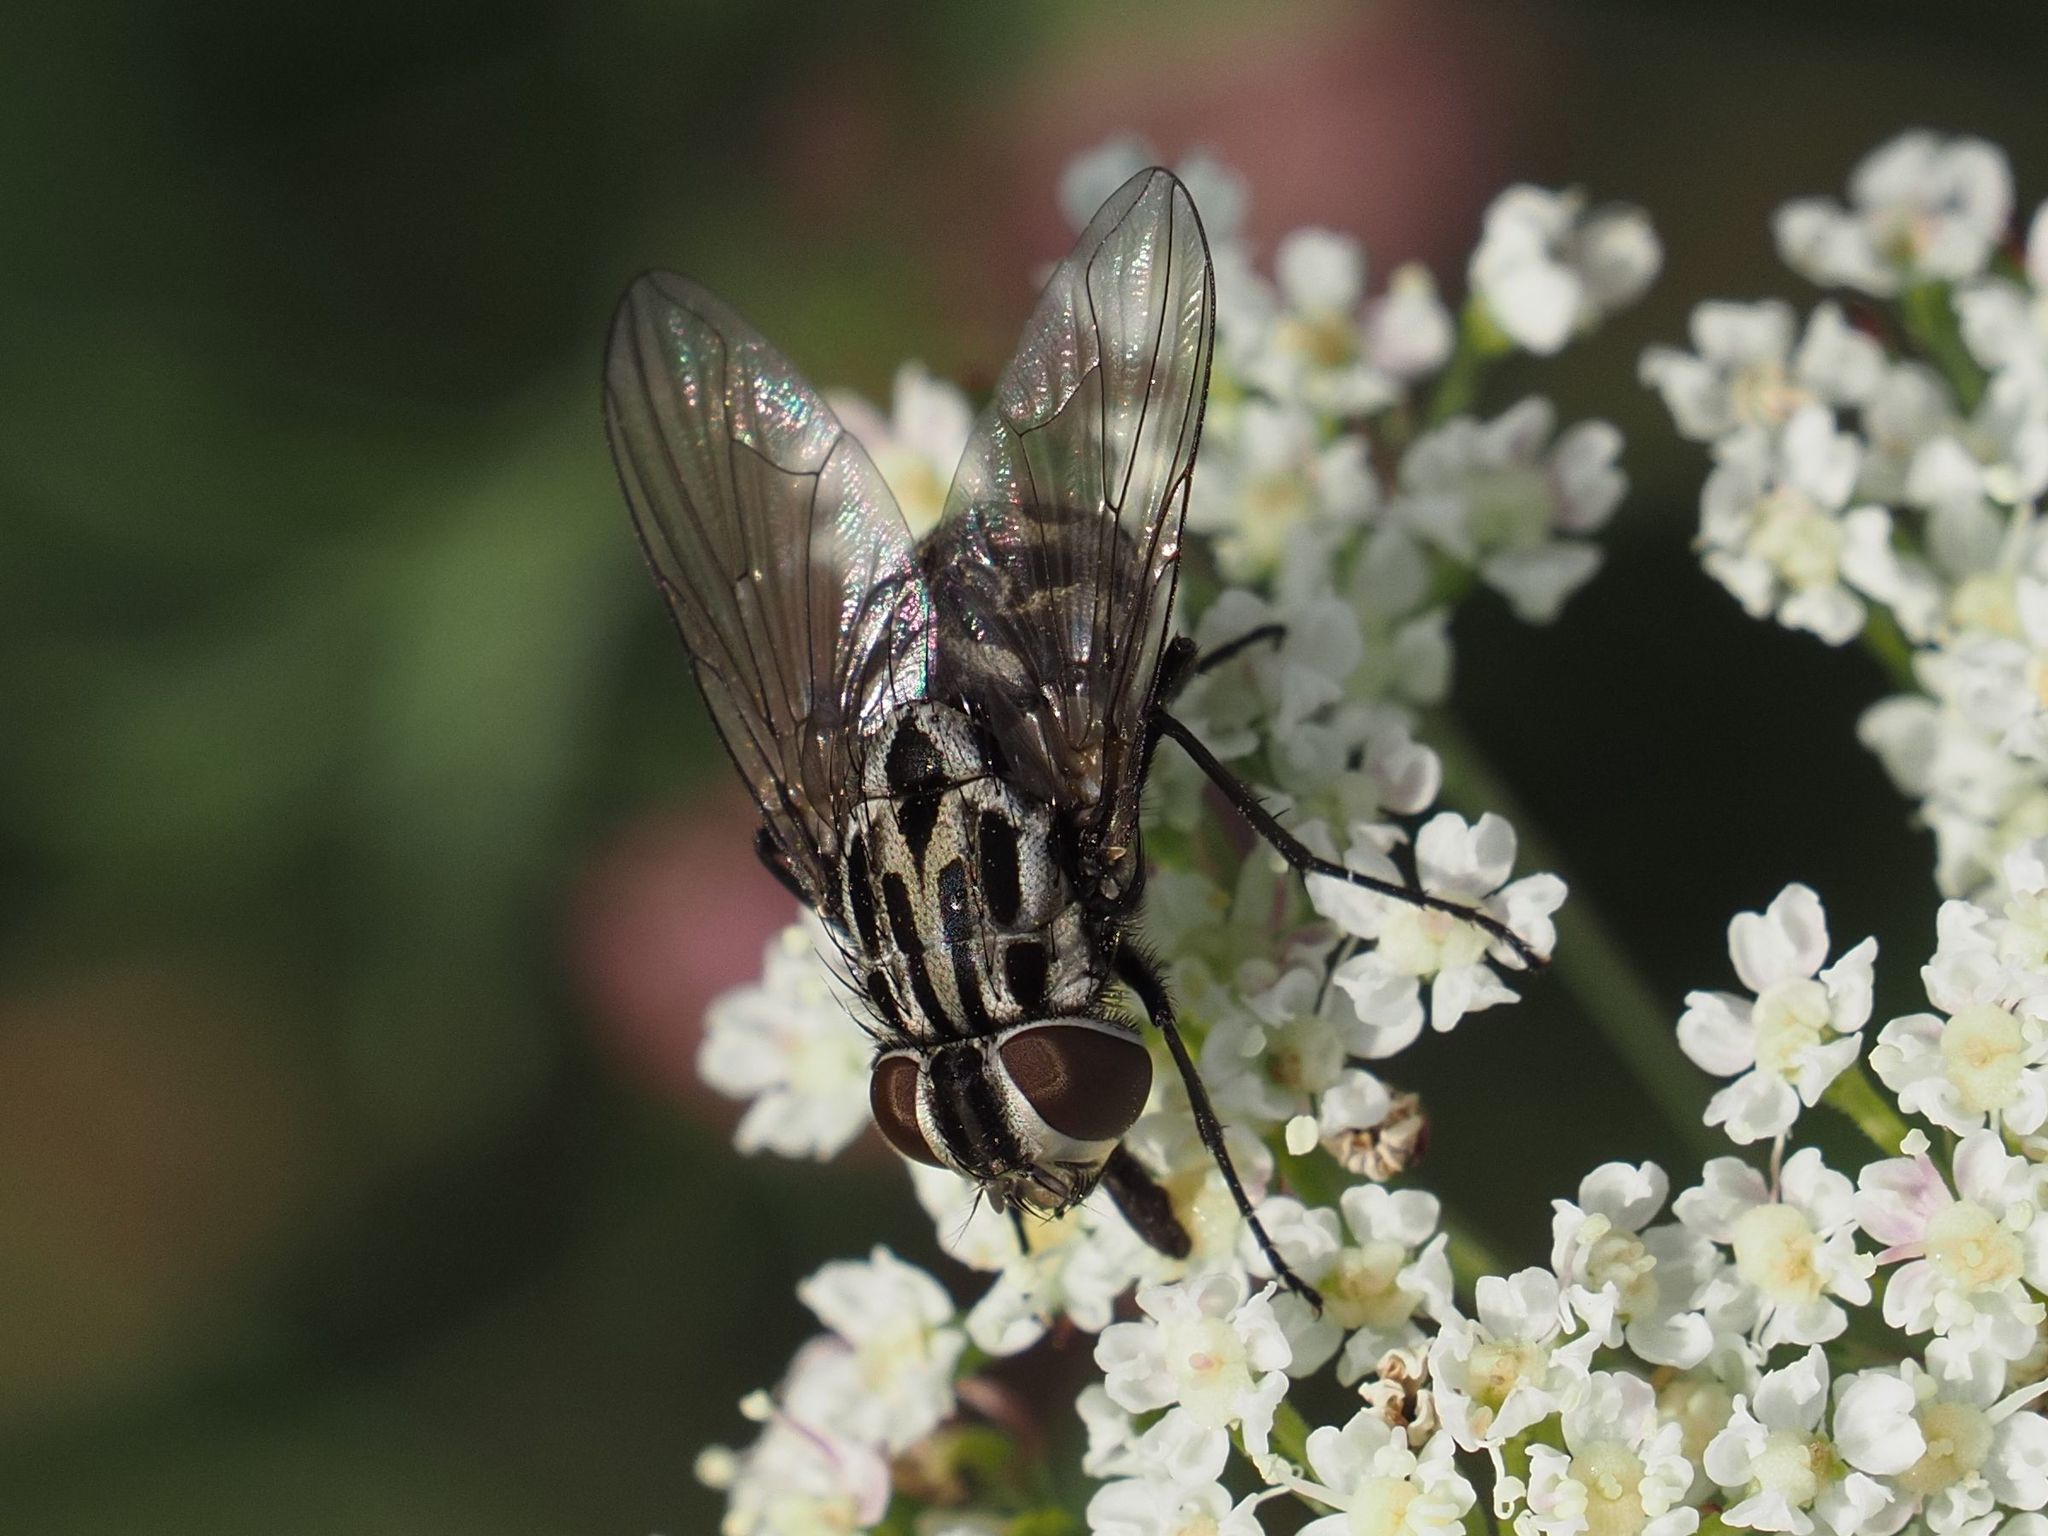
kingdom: Animalia
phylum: Arthropoda
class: Insecta
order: Diptera
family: Muscidae
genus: Graphomya
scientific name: Graphomya maculata
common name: Muscid fly
